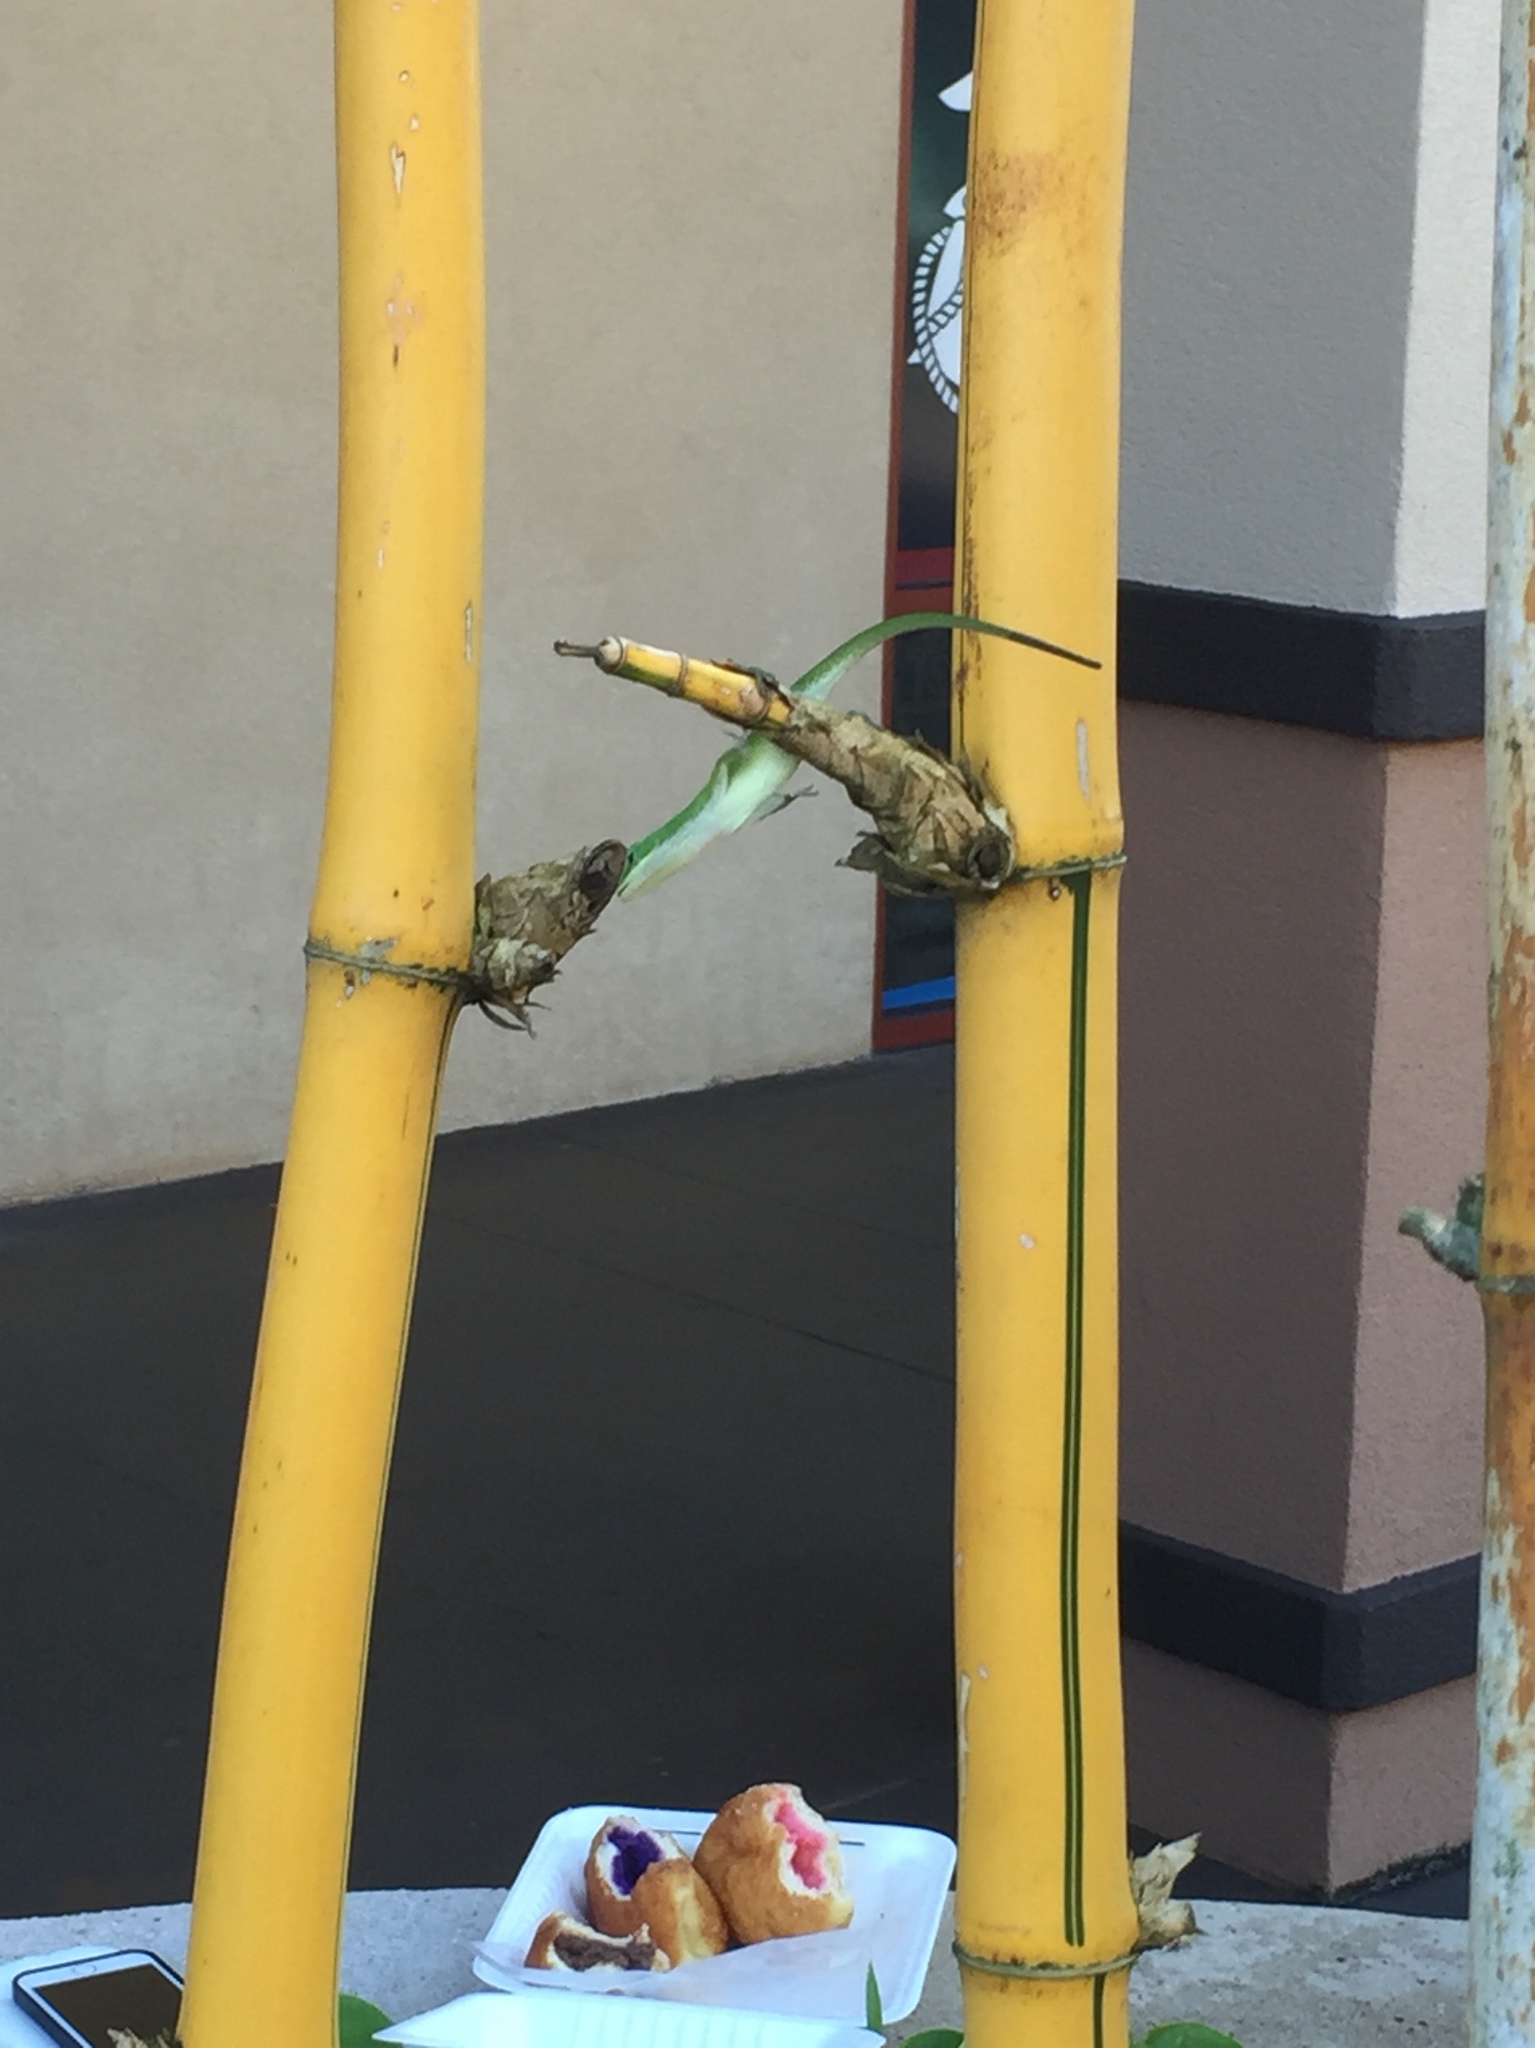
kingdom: Animalia
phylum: Chordata
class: Squamata
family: Dactyloidae
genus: Anolis
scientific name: Anolis carolinensis
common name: Green anole
